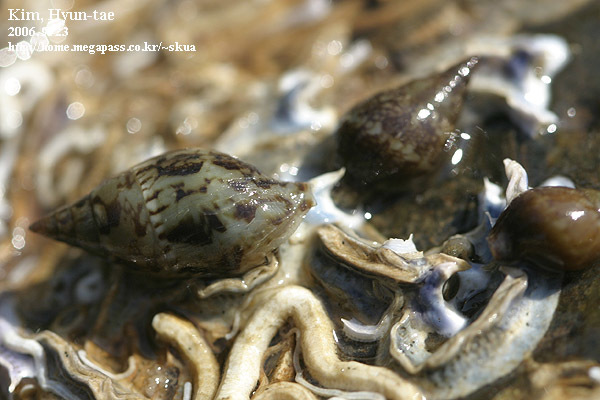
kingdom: Animalia
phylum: Mollusca
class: Gastropoda
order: Neogastropoda
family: Columbellidae
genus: Mitrella
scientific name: Mitrella burchardti
